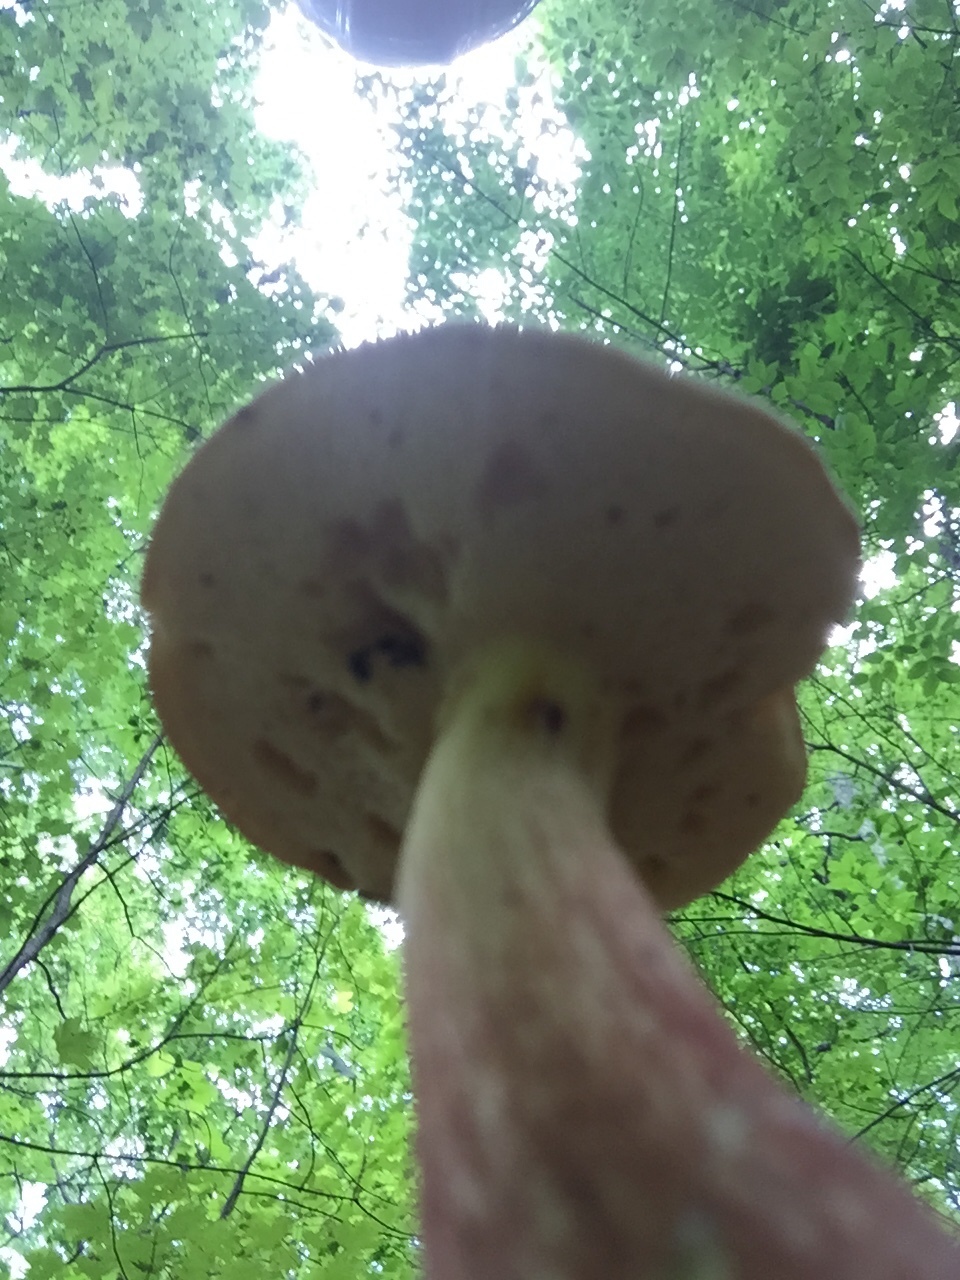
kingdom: Fungi
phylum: Basidiomycota
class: Agaricomycetes
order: Boletales
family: Boletaceae
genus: Baorangia
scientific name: Baorangia bicolor
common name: Two-colored bolete
